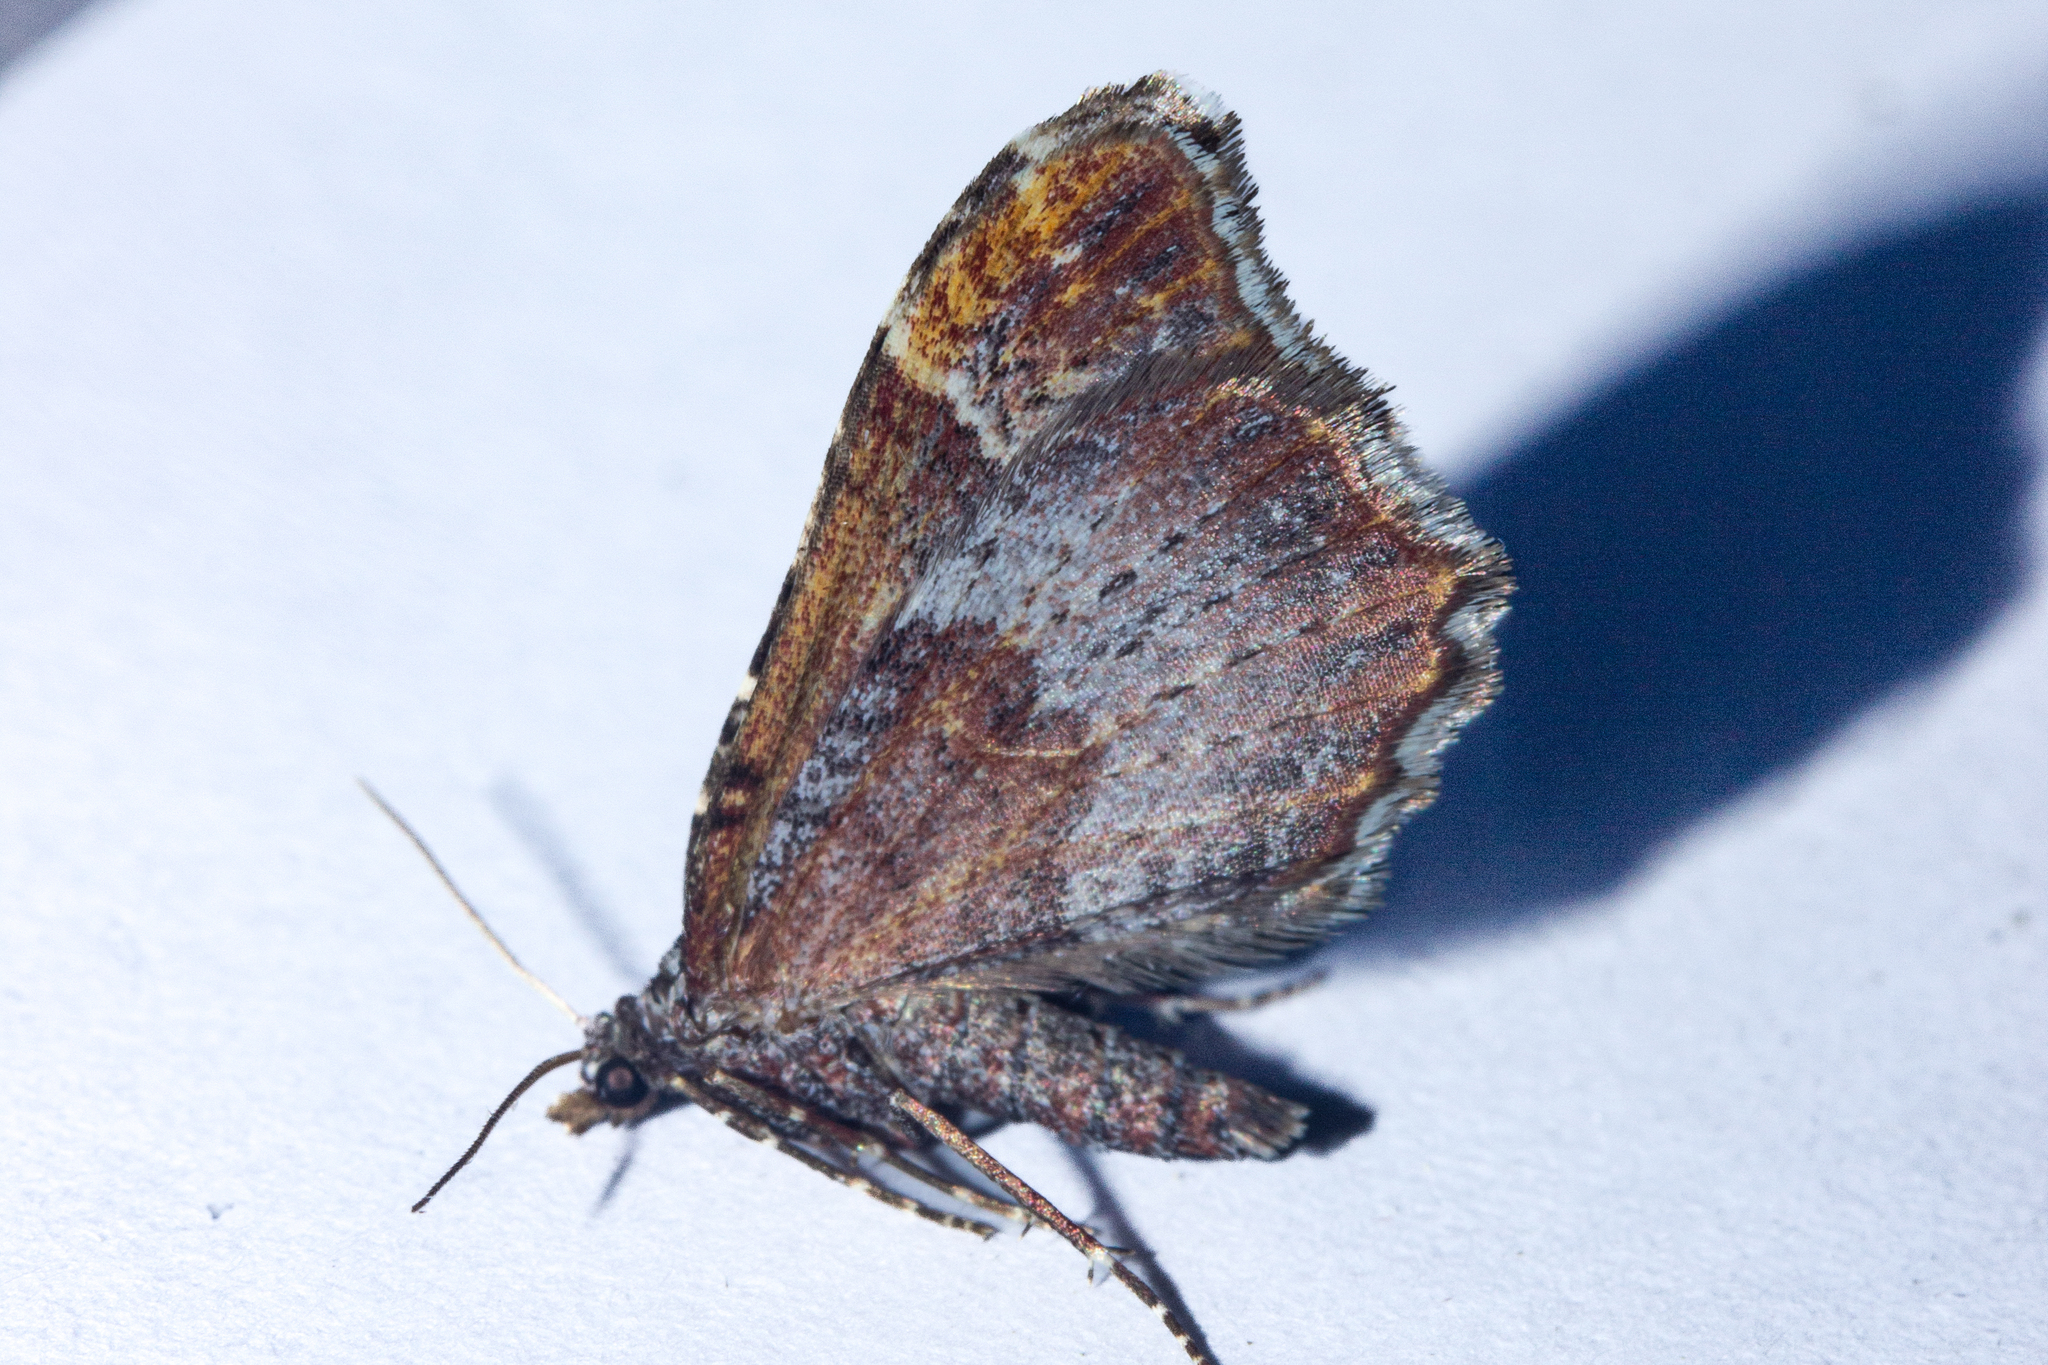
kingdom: Animalia
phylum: Arthropoda
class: Insecta
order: Lepidoptera
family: Geometridae
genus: Helastia
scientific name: Helastia angusta
